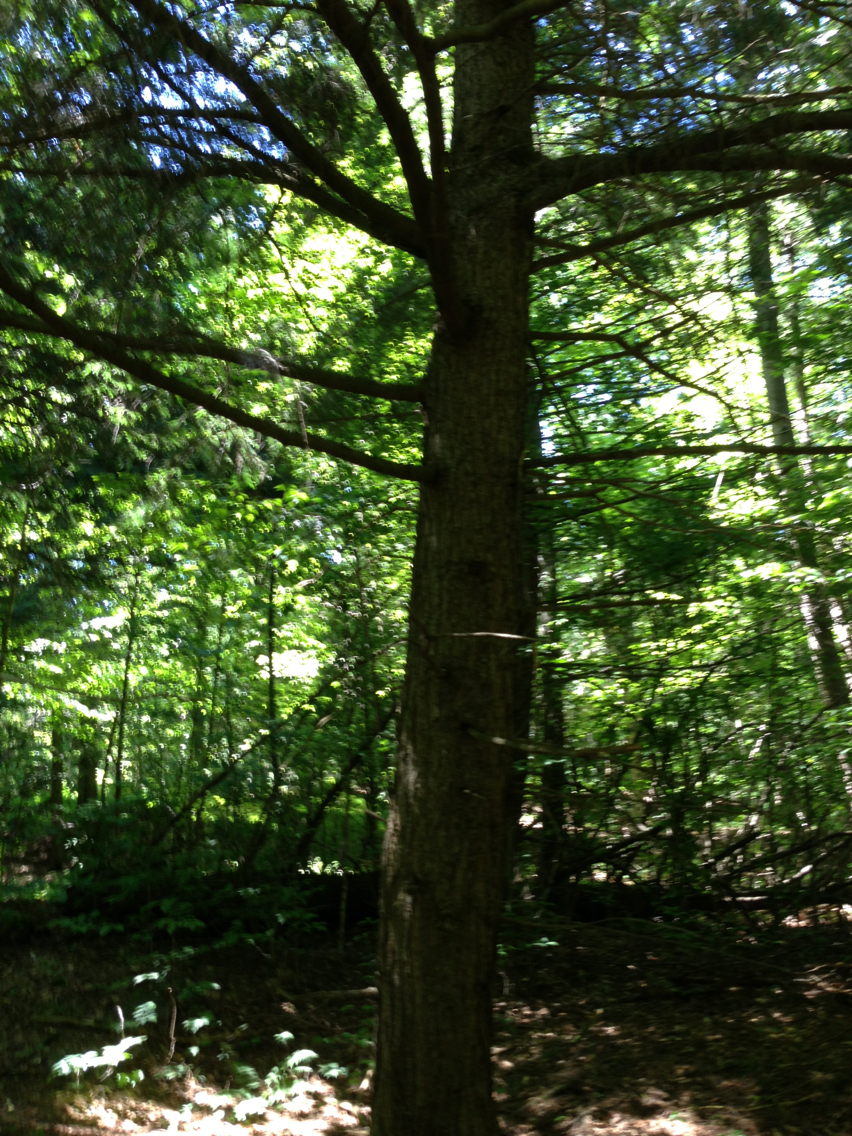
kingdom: Plantae
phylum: Tracheophyta
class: Pinopsida
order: Pinales
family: Pinaceae
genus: Tsuga
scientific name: Tsuga canadensis
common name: Eastern hemlock
